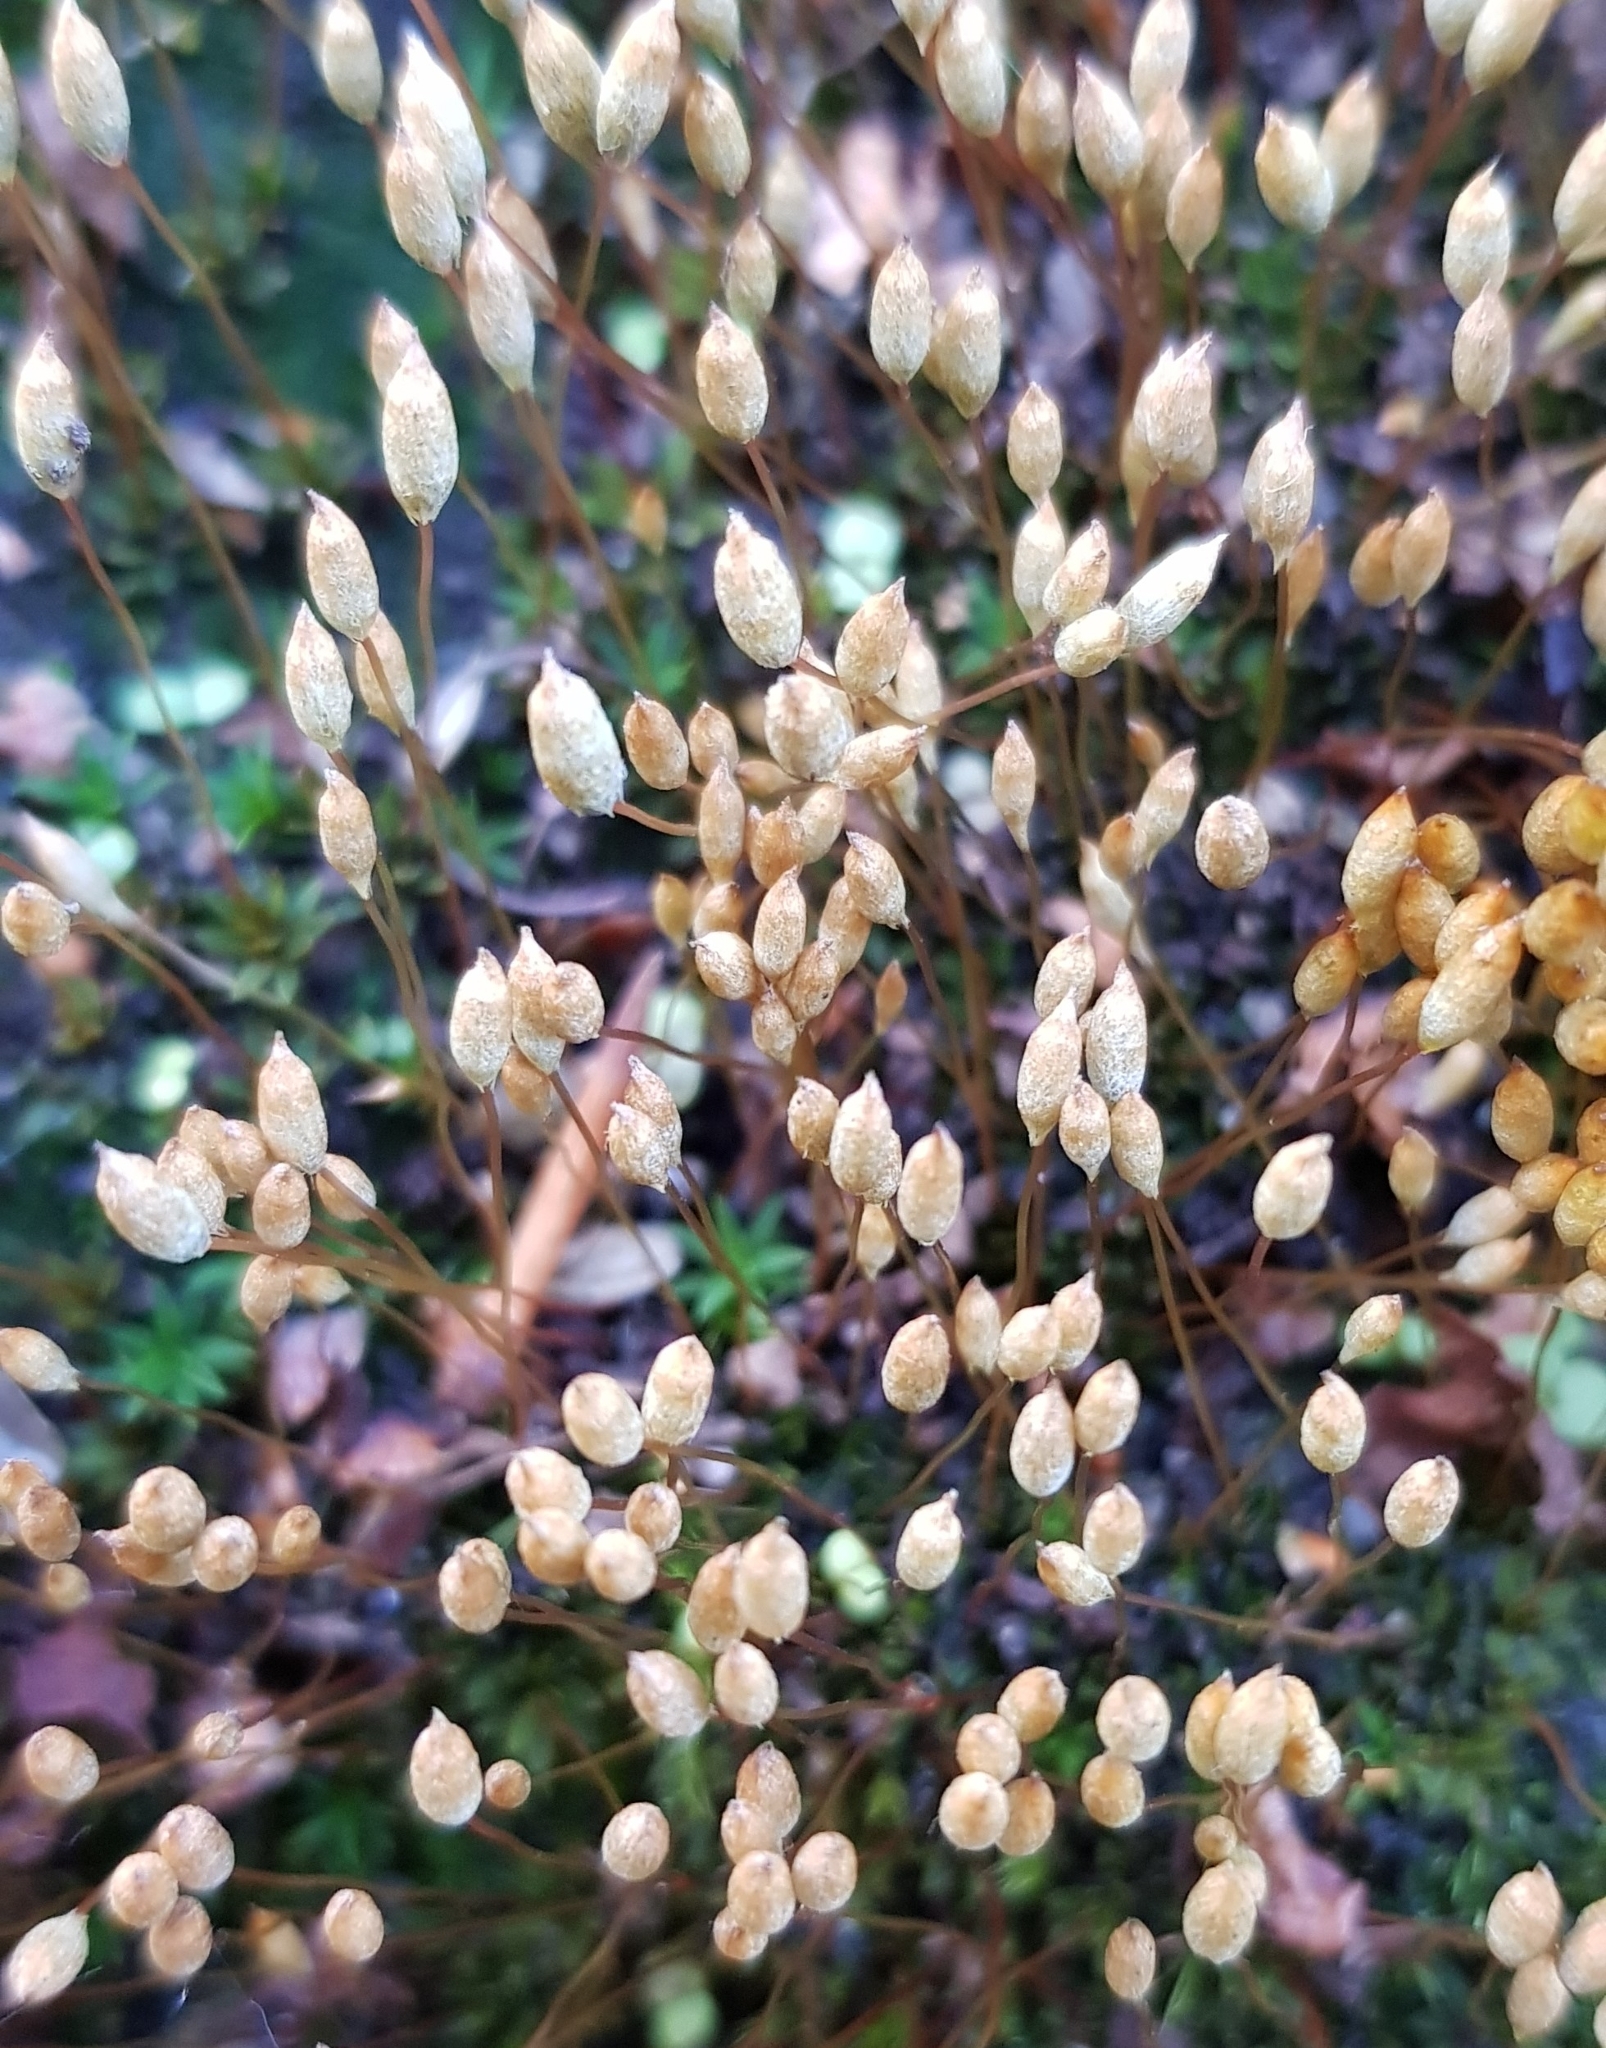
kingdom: Plantae
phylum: Bryophyta
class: Polytrichopsida
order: Polytrichales
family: Polytrichaceae
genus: Pogonatum
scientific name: Pogonatum aloides
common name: Aloe haircap
